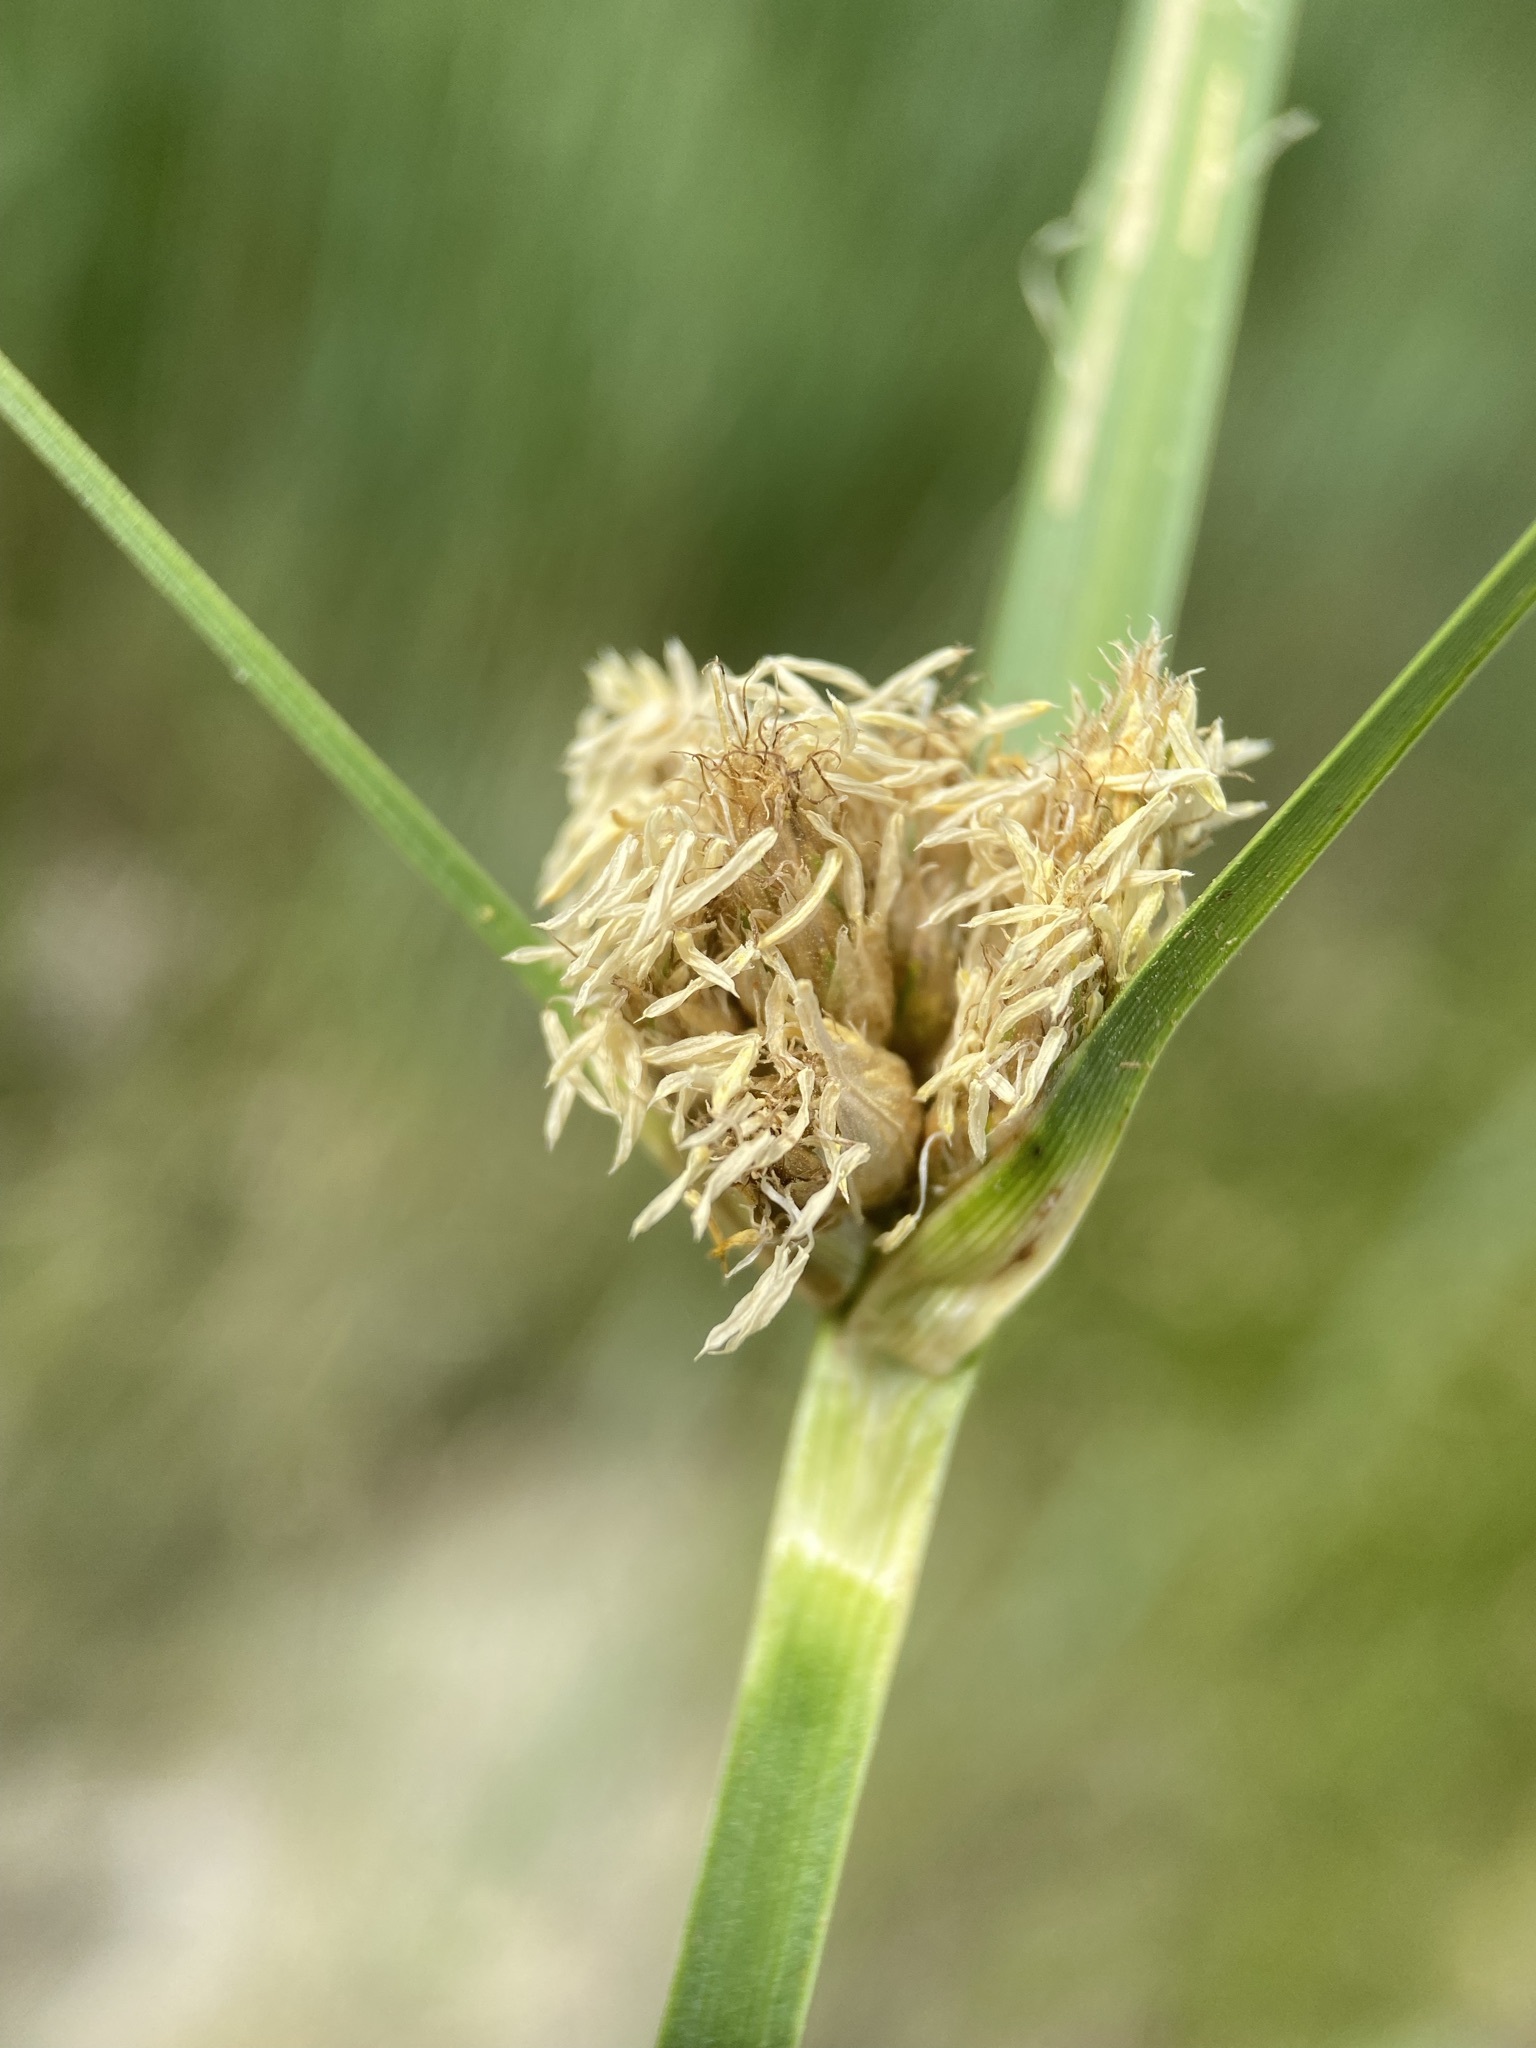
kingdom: Plantae
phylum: Tracheophyta
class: Liliopsida
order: Poales
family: Cyperaceae
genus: Bolboschoenus
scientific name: Bolboschoenus maritimus
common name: Sea club-rush
